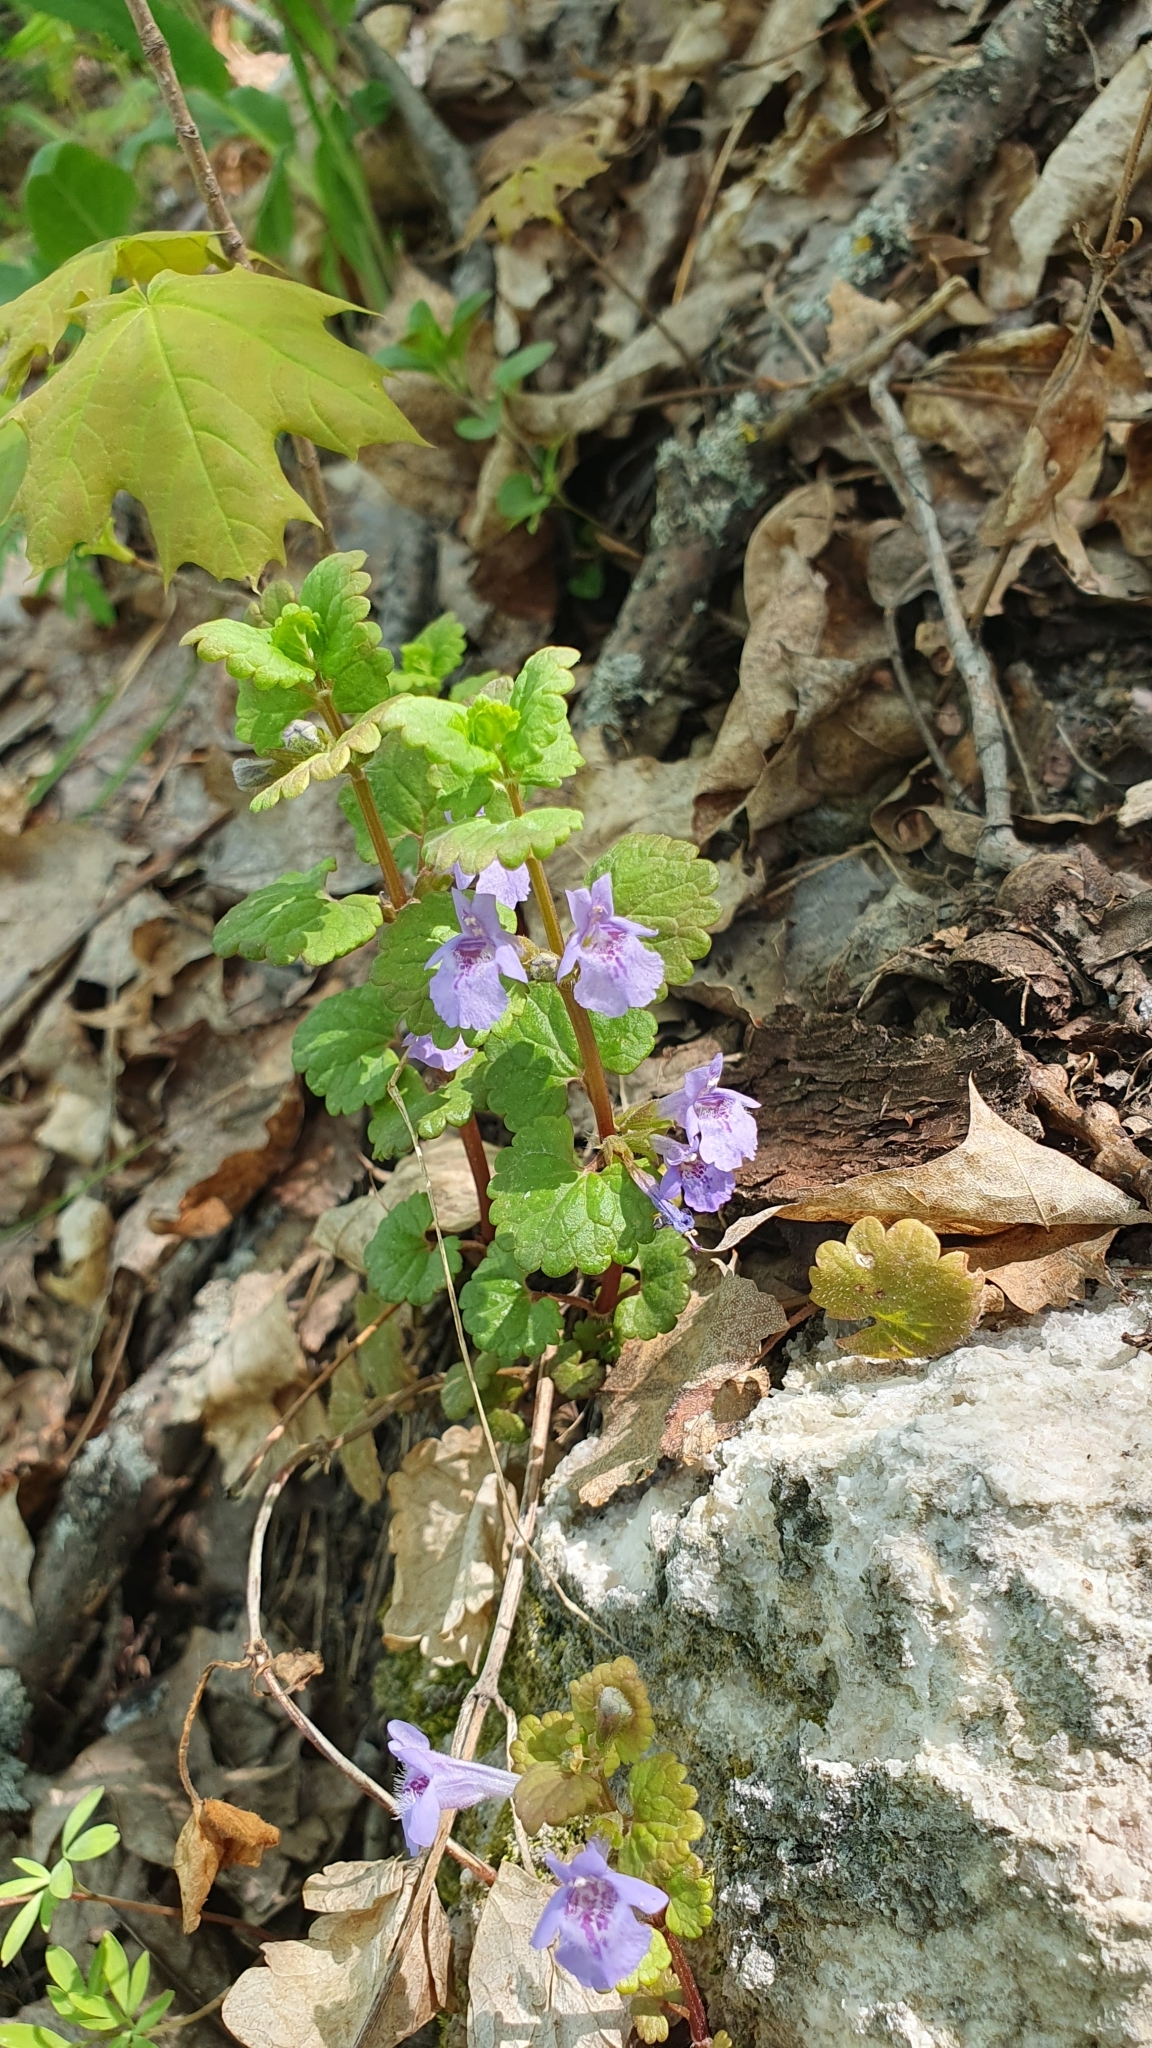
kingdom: Plantae
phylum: Tracheophyta
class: Magnoliopsida
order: Lamiales
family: Lamiaceae
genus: Glechoma
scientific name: Glechoma hederacea
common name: Ground ivy
